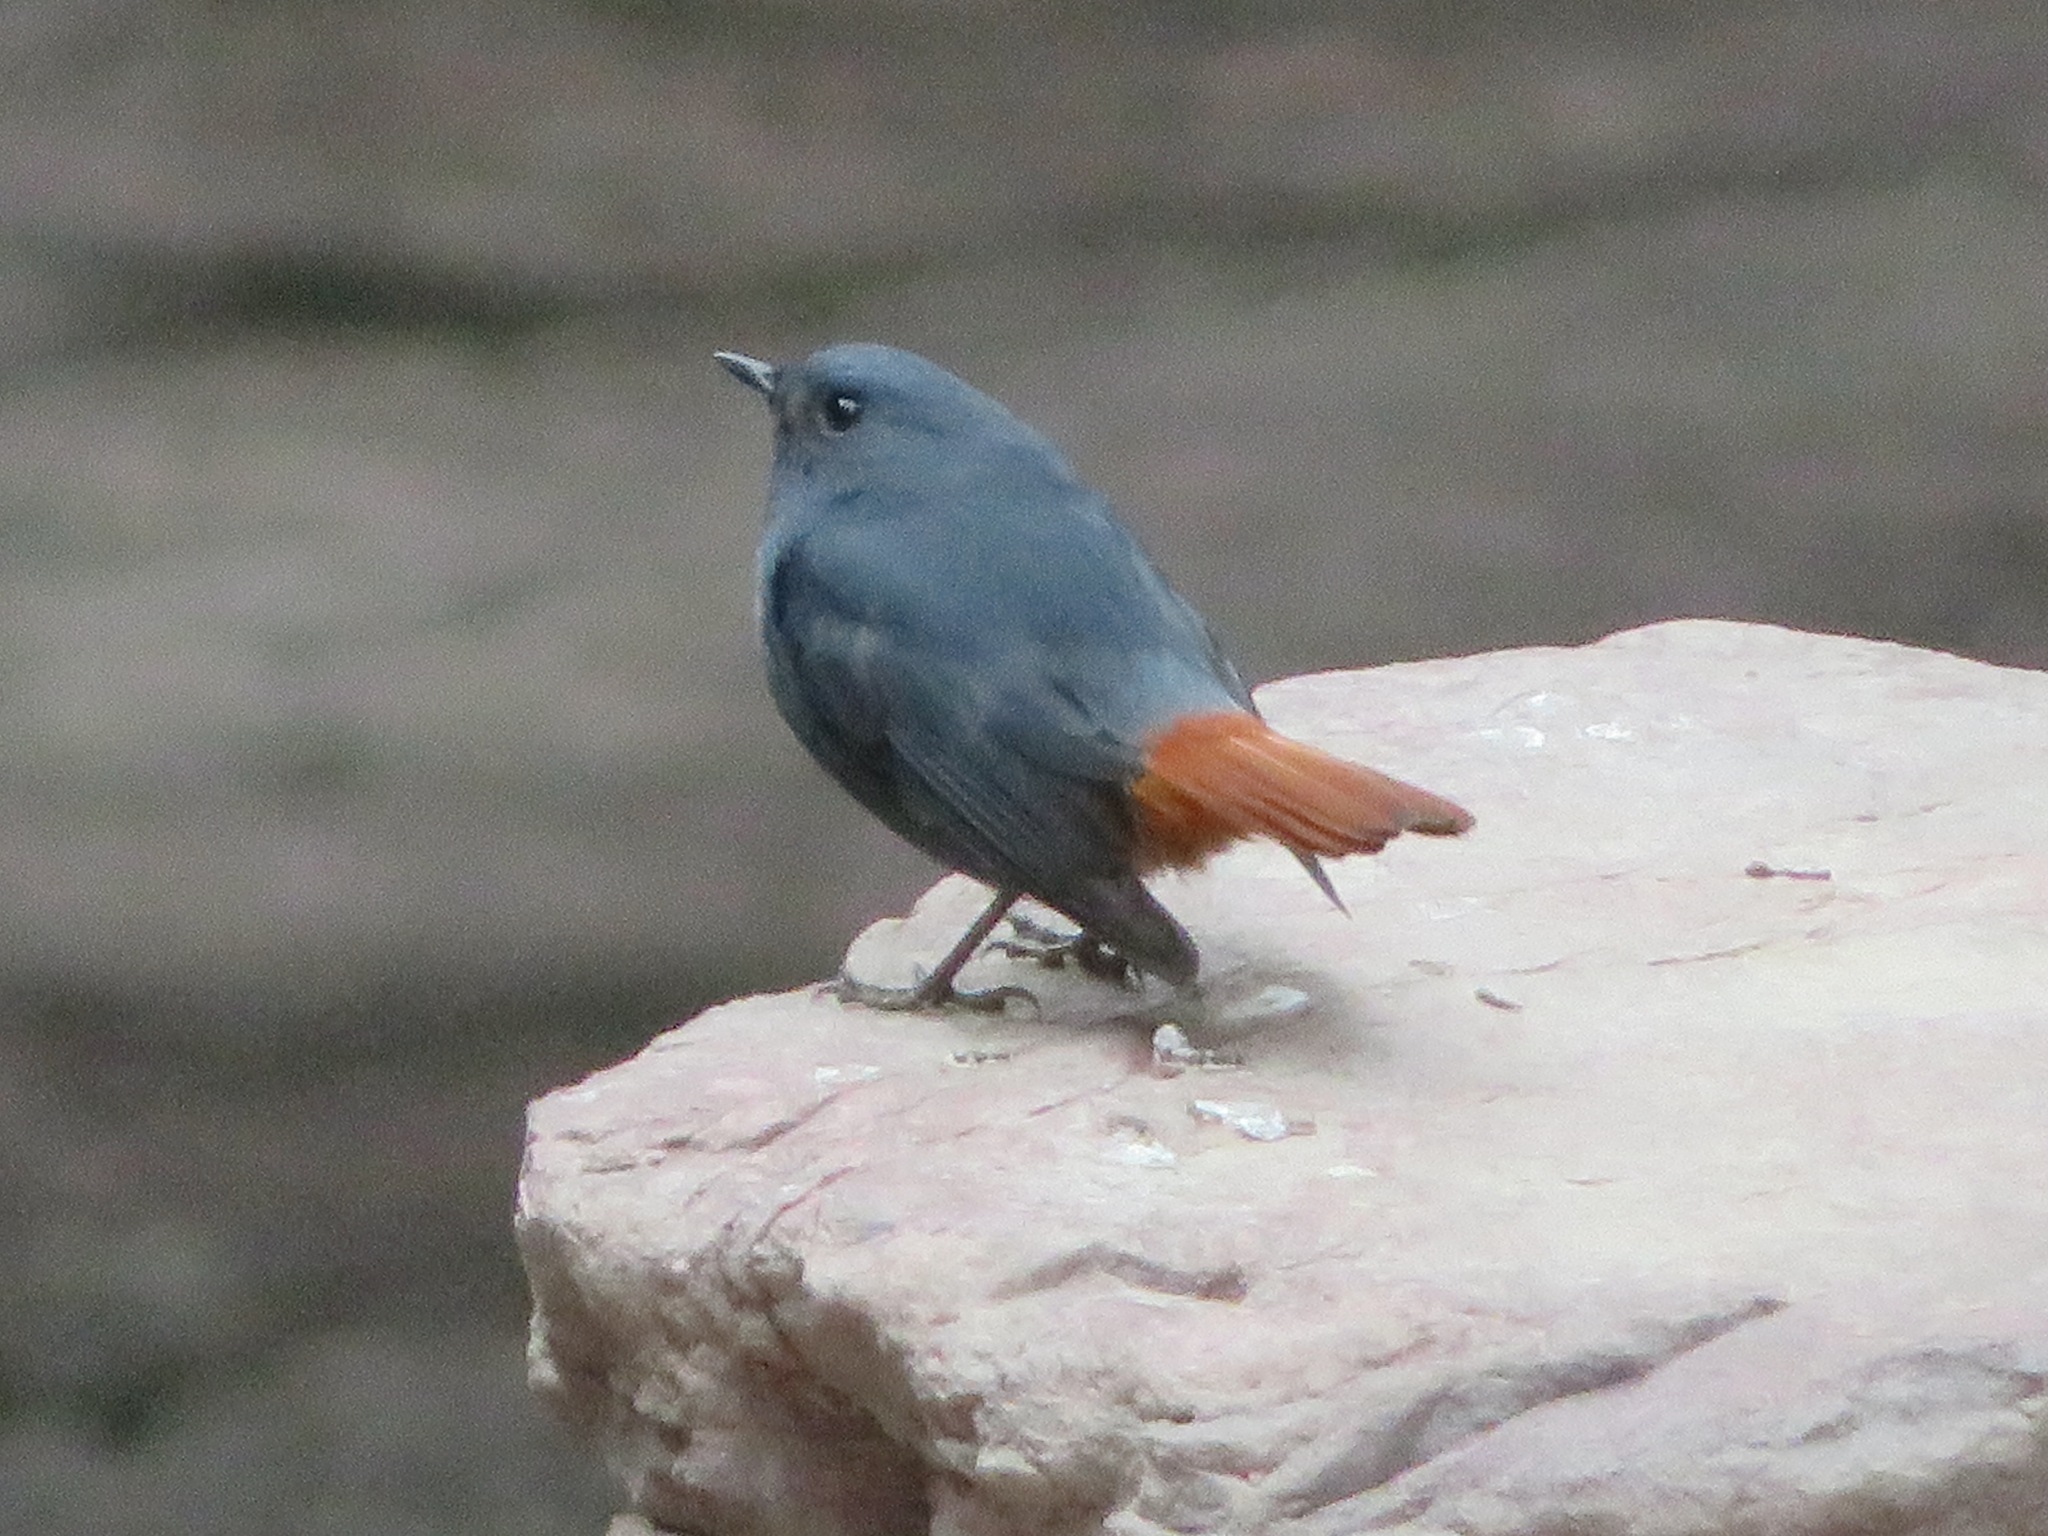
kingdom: Animalia
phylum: Chordata
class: Aves
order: Passeriformes
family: Muscicapidae
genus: Phoenicurus
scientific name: Phoenicurus fuliginosus
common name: Plumbeous water redstart
